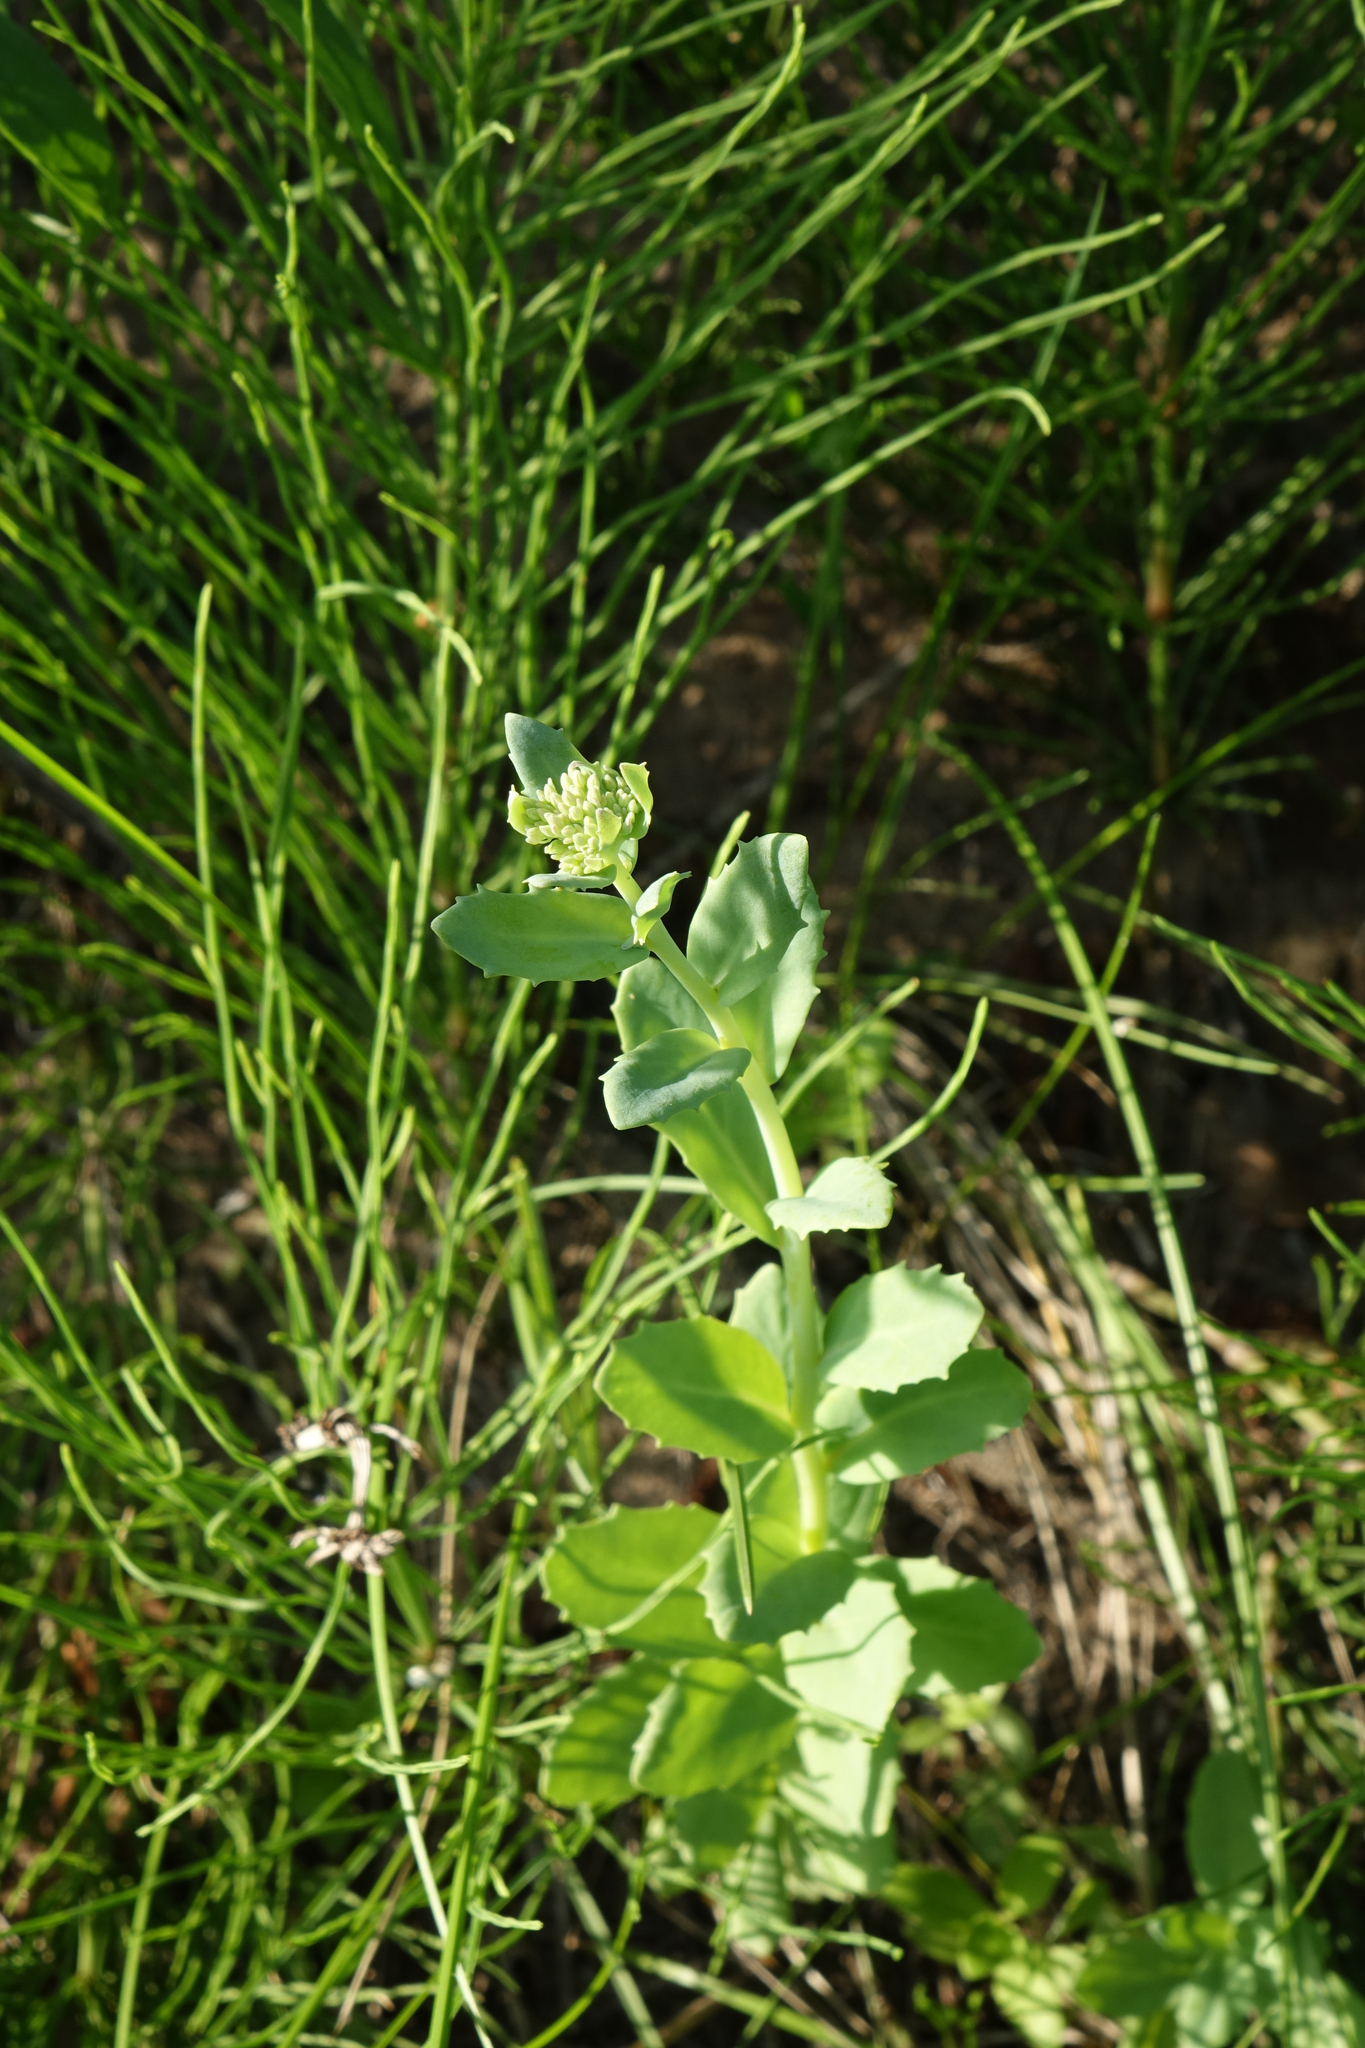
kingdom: Plantae
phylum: Tracheophyta
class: Polypodiopsida
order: Equisetales
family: Equisetaceae
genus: Equisetum
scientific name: Equisetum arvense
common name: Field horsetail
